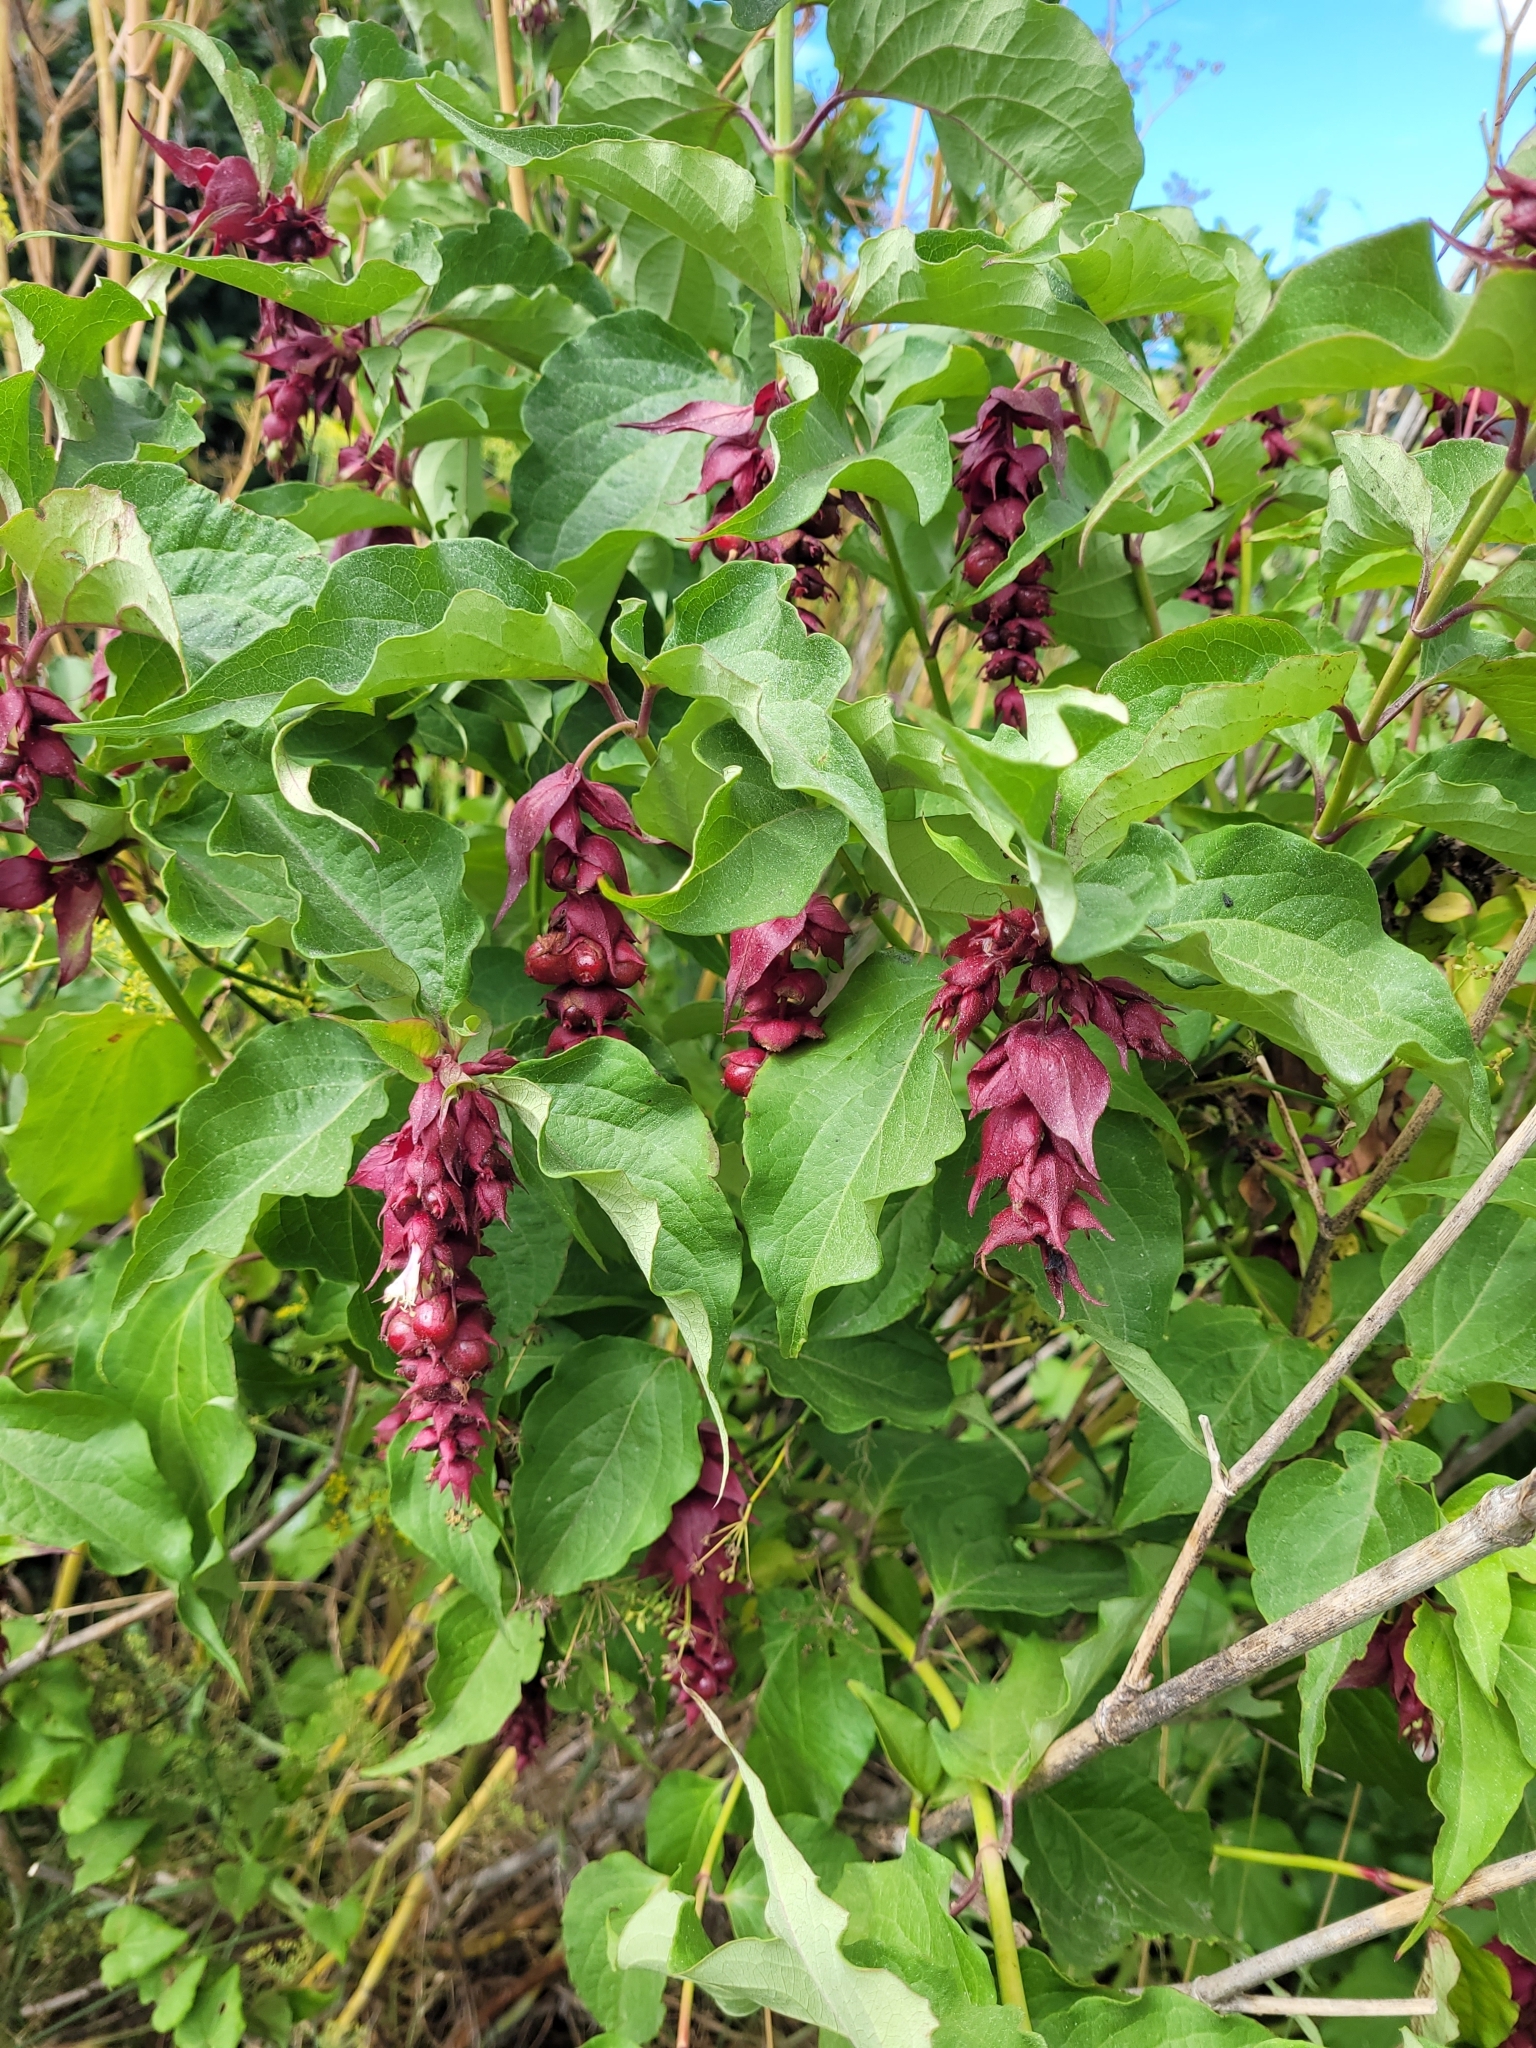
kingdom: Plantae
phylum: Tracheophyta
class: Magnoliopsida
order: Dipsacales
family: Caprifoliaceae
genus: Leycesteria
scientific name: Leycesteria formosa
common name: Himalayan honeysuckle
